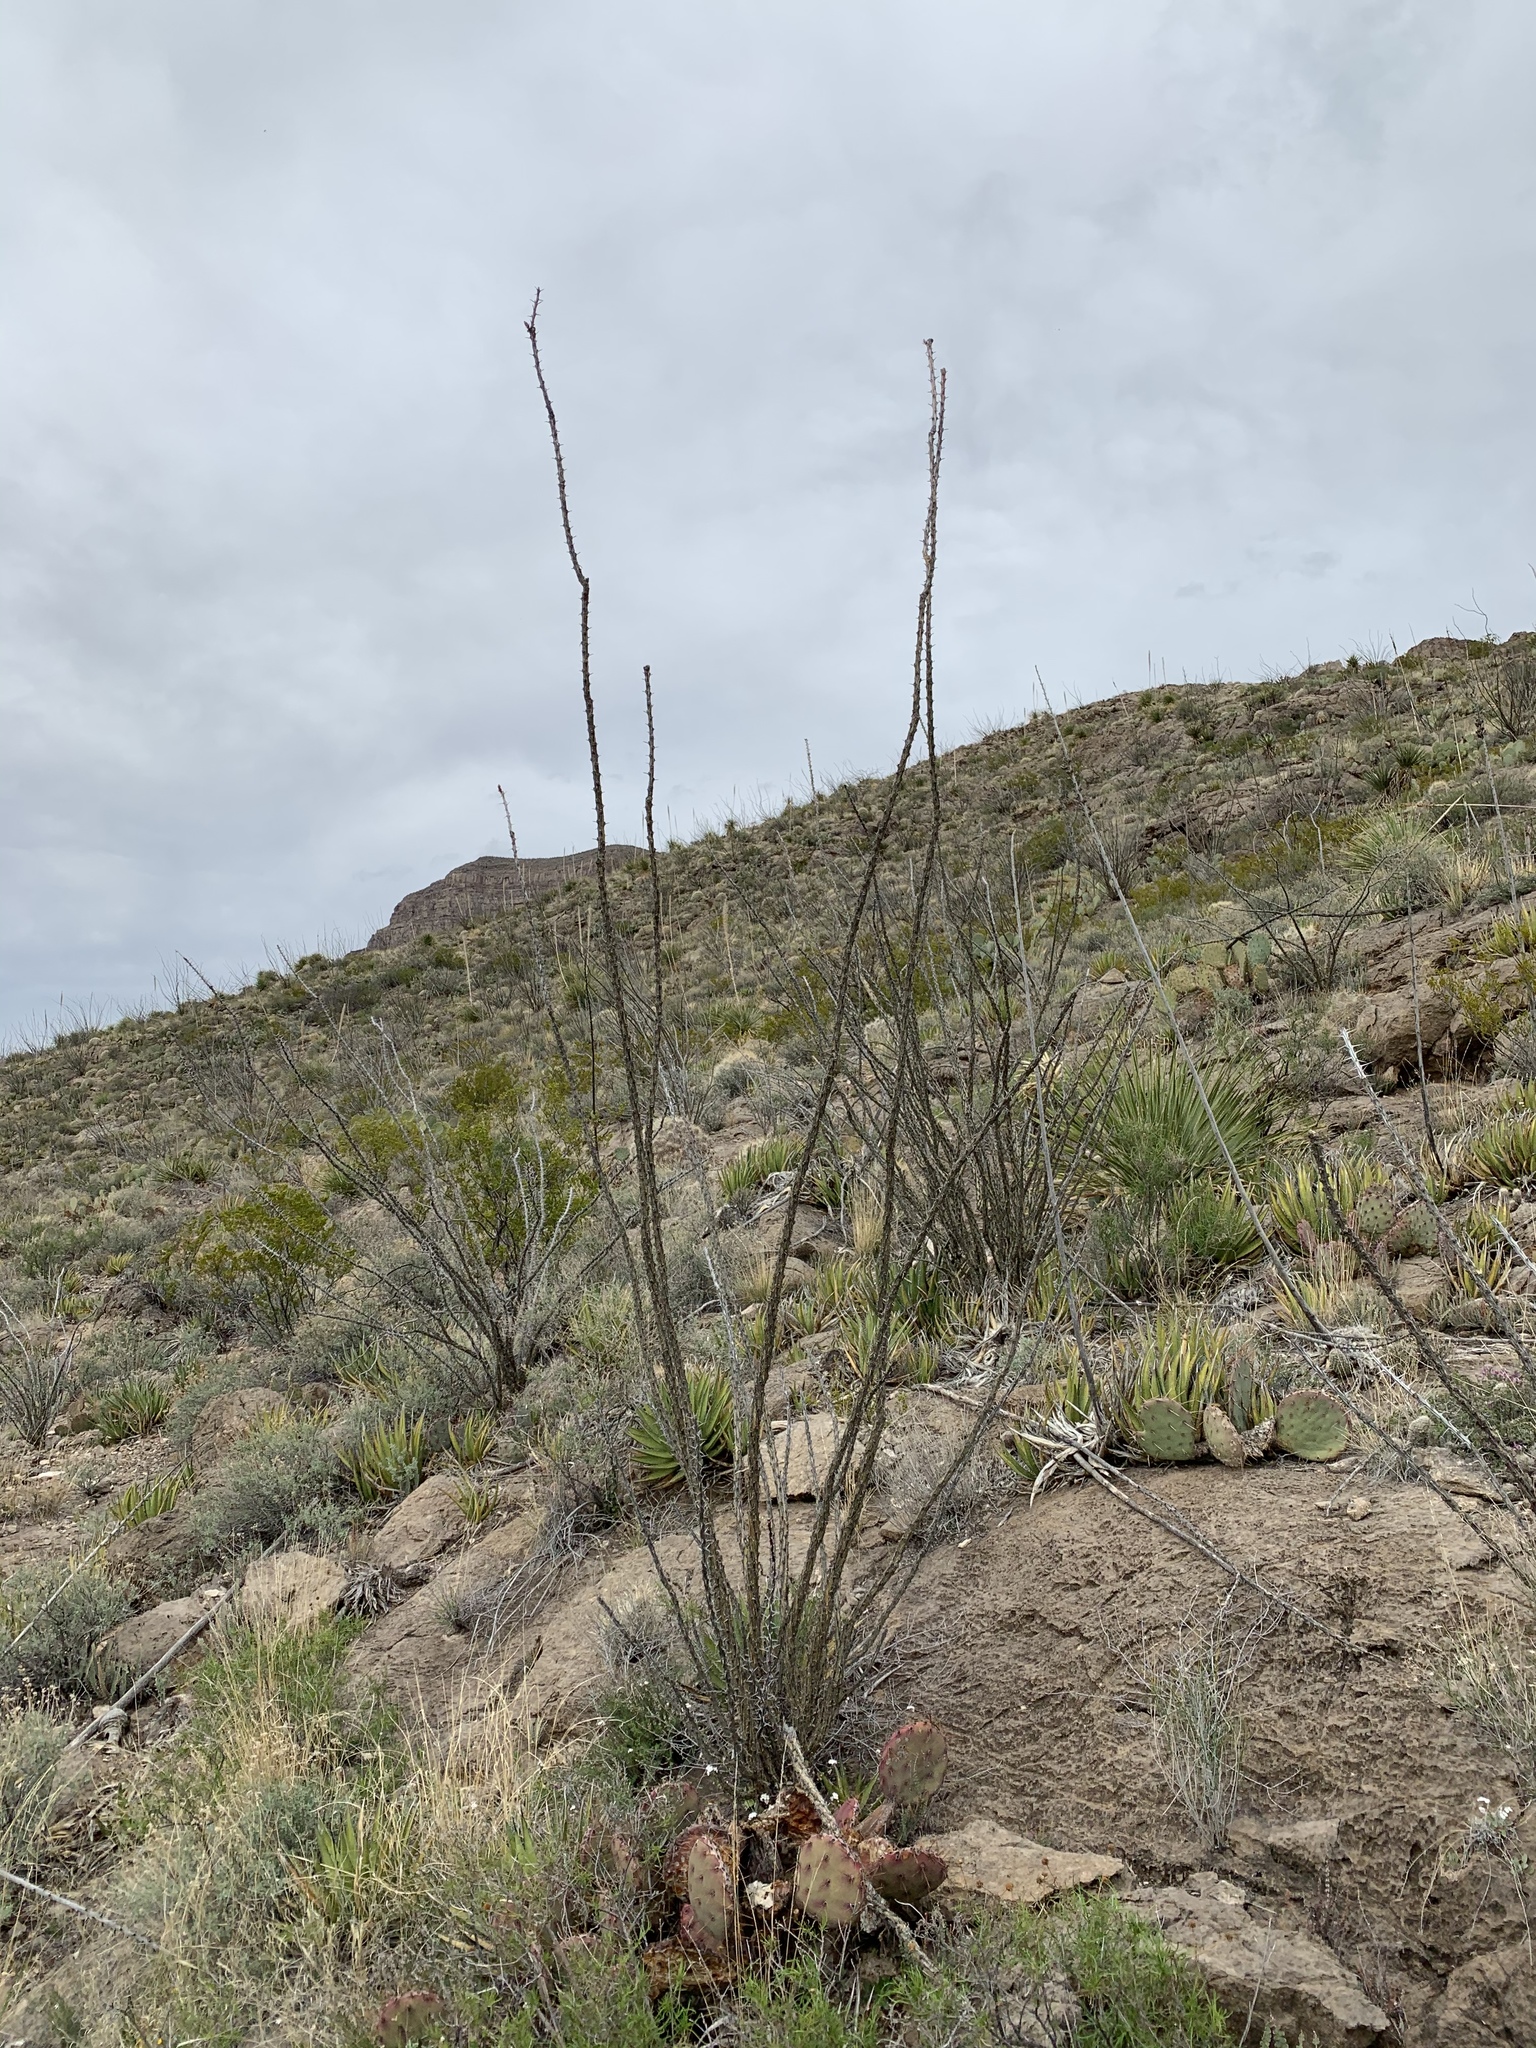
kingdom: Plantae
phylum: Tracheophyta
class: Magnoliopsida
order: Ericales
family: Fouquieriaceae
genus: Fouquieria
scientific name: Fouquieria splendens
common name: Vine-cactus
